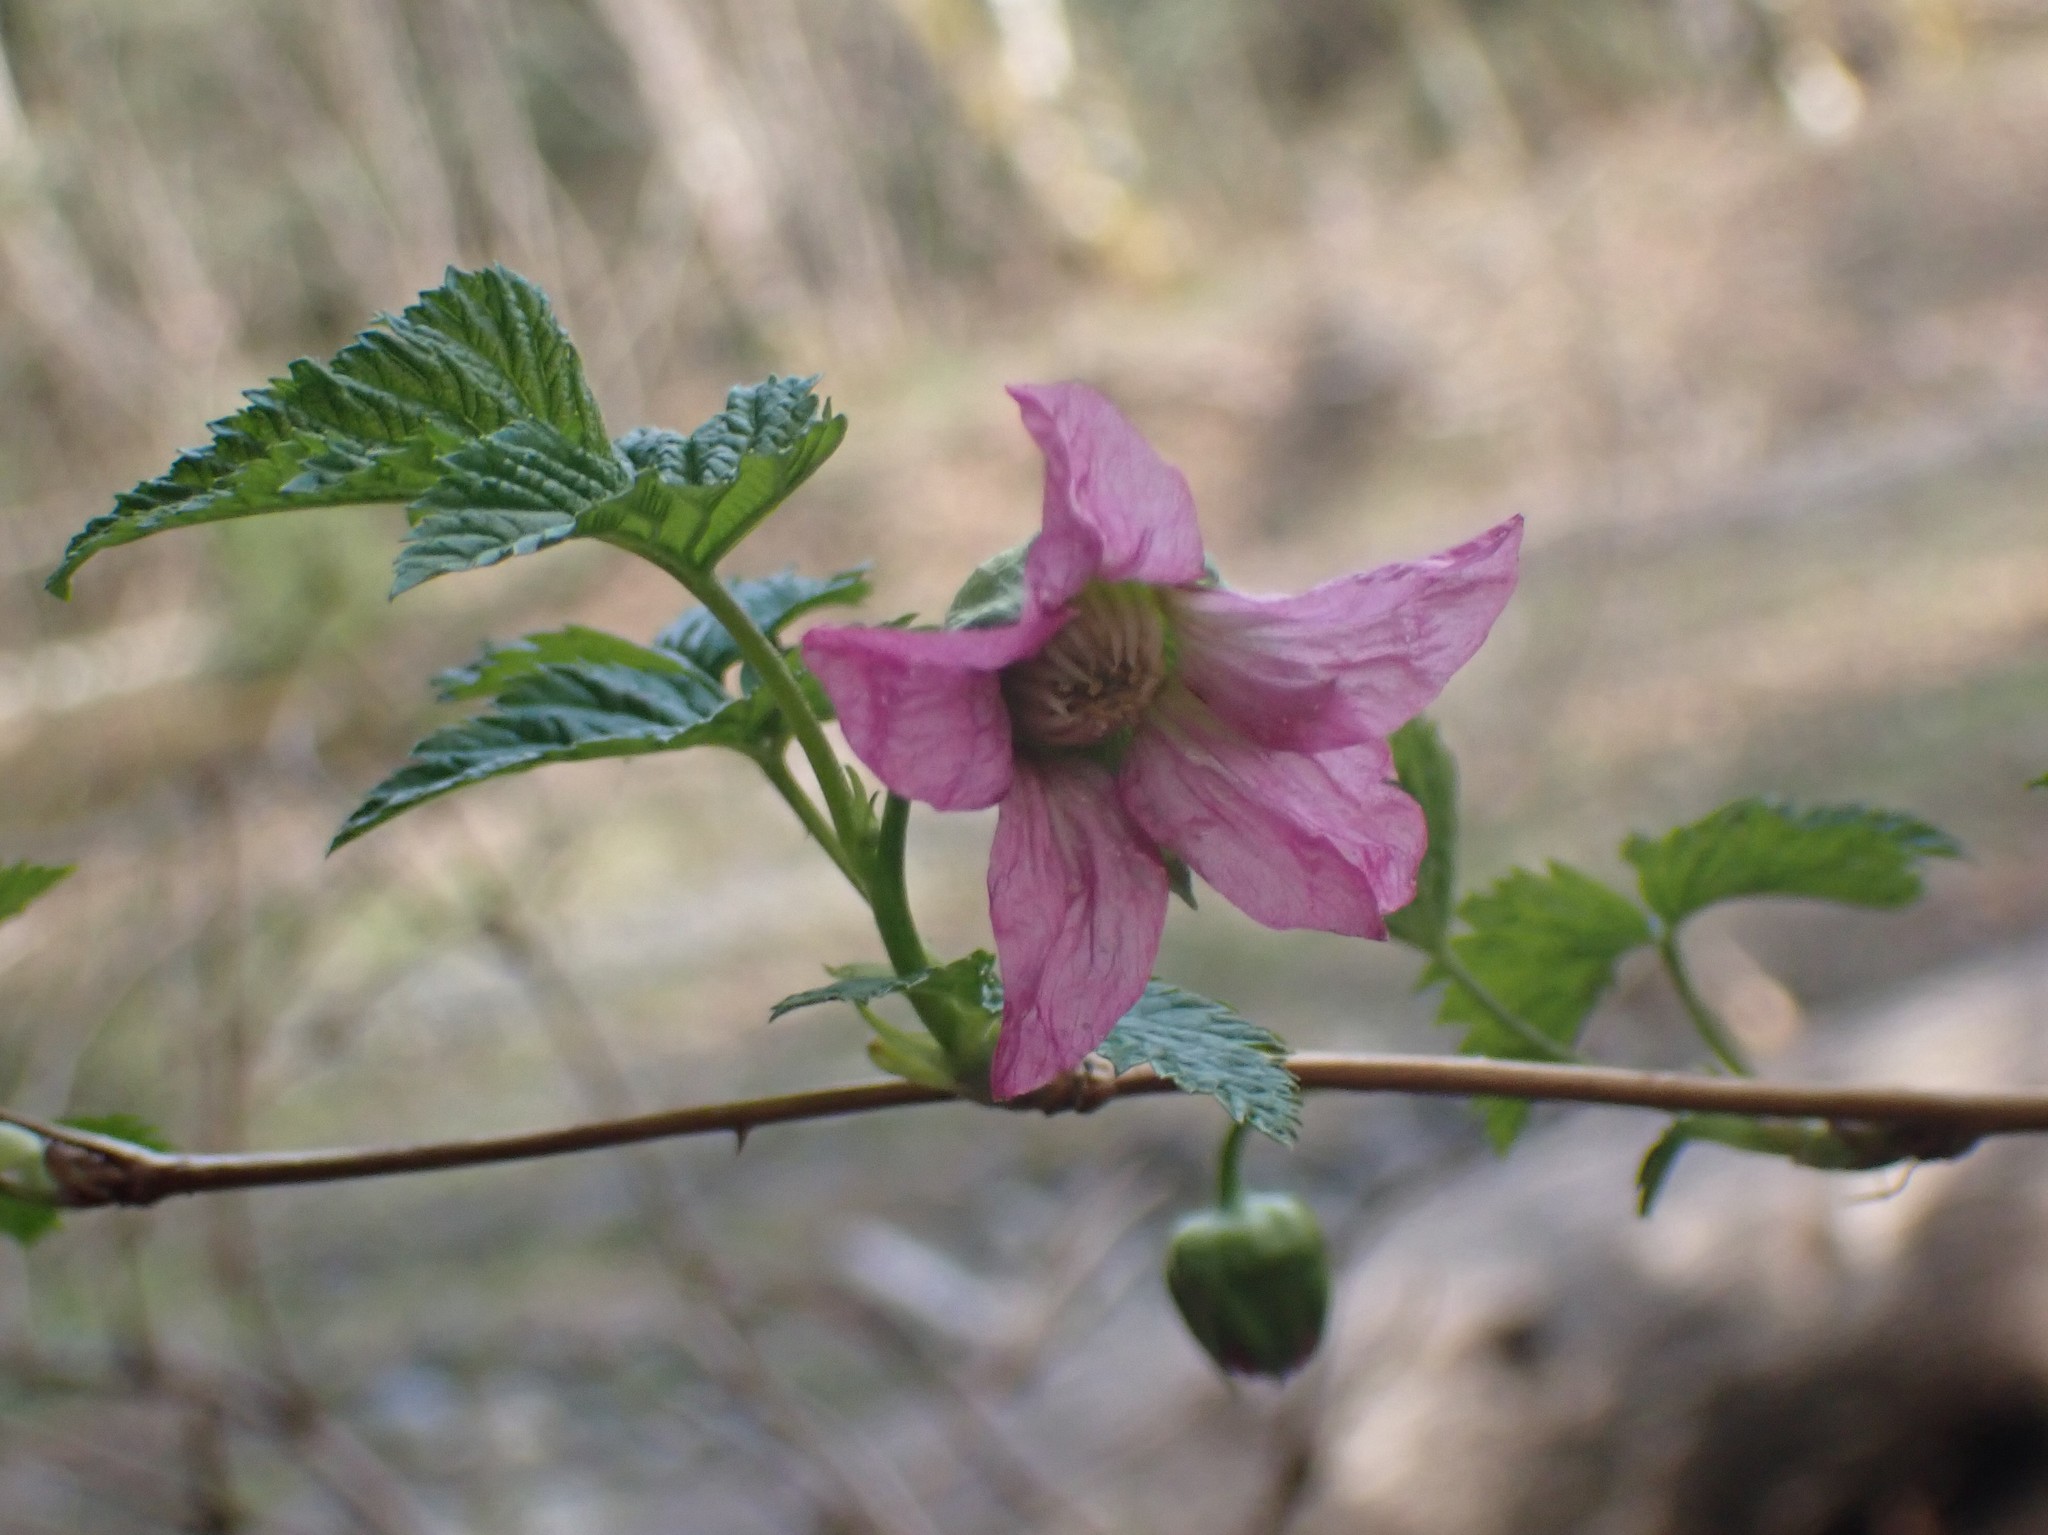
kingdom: Plantae
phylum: Tracheophyta
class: Magnoliopsida
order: Rosales
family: Rosaceae
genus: Rubus
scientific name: Rubus spectabilis
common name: Salmonberry
